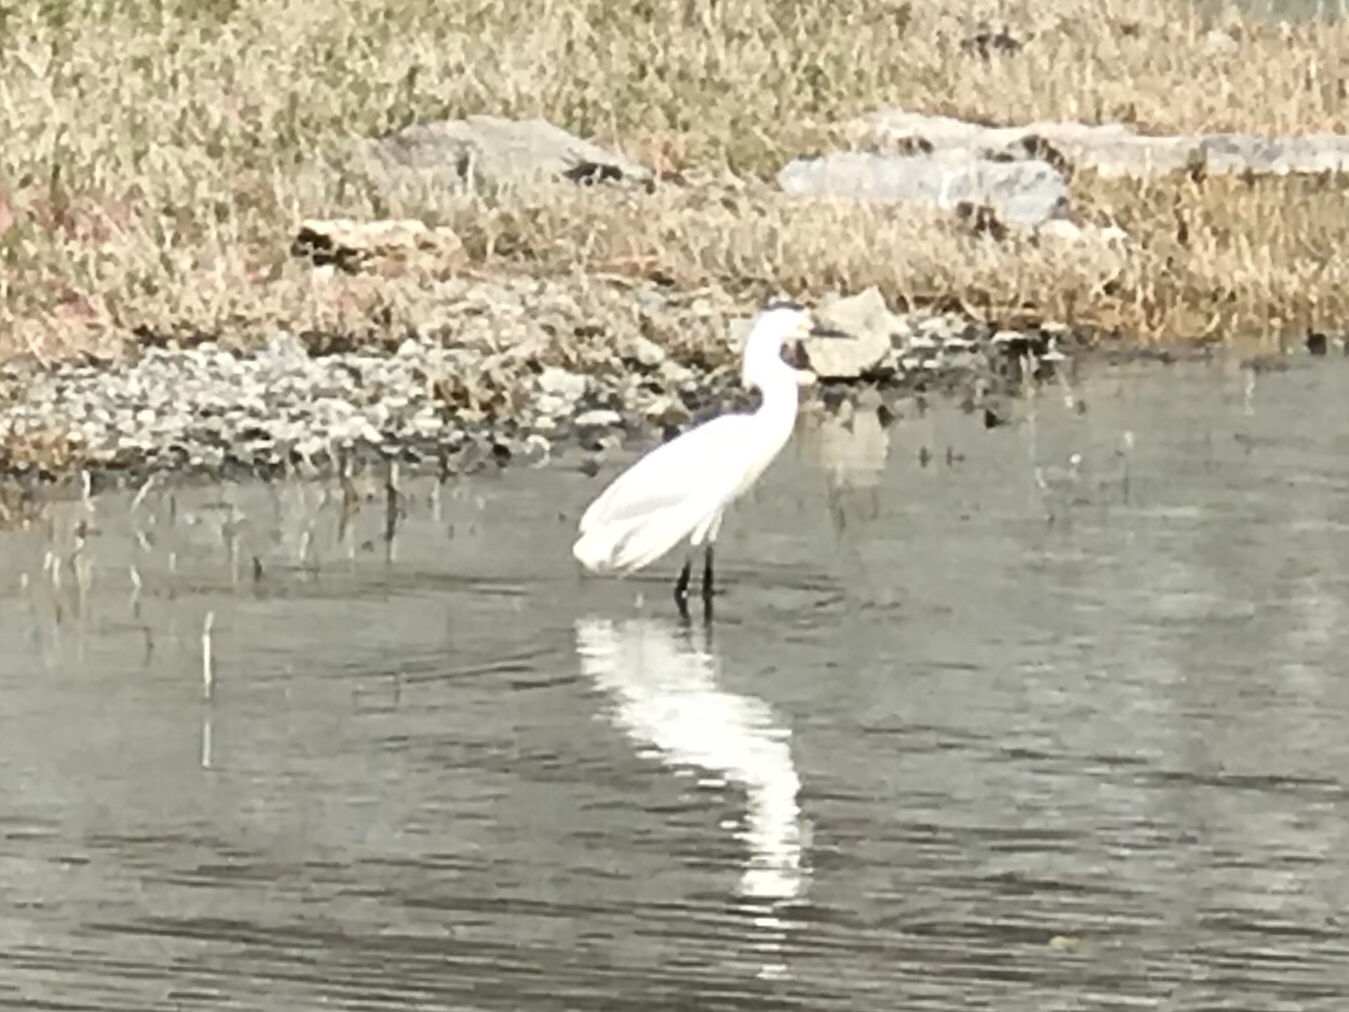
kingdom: Animalia
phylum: Chordata
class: Aves
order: Pelecaniformes
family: Ardeidae
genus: Egretta
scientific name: Egretta thula
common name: Snowy egret
